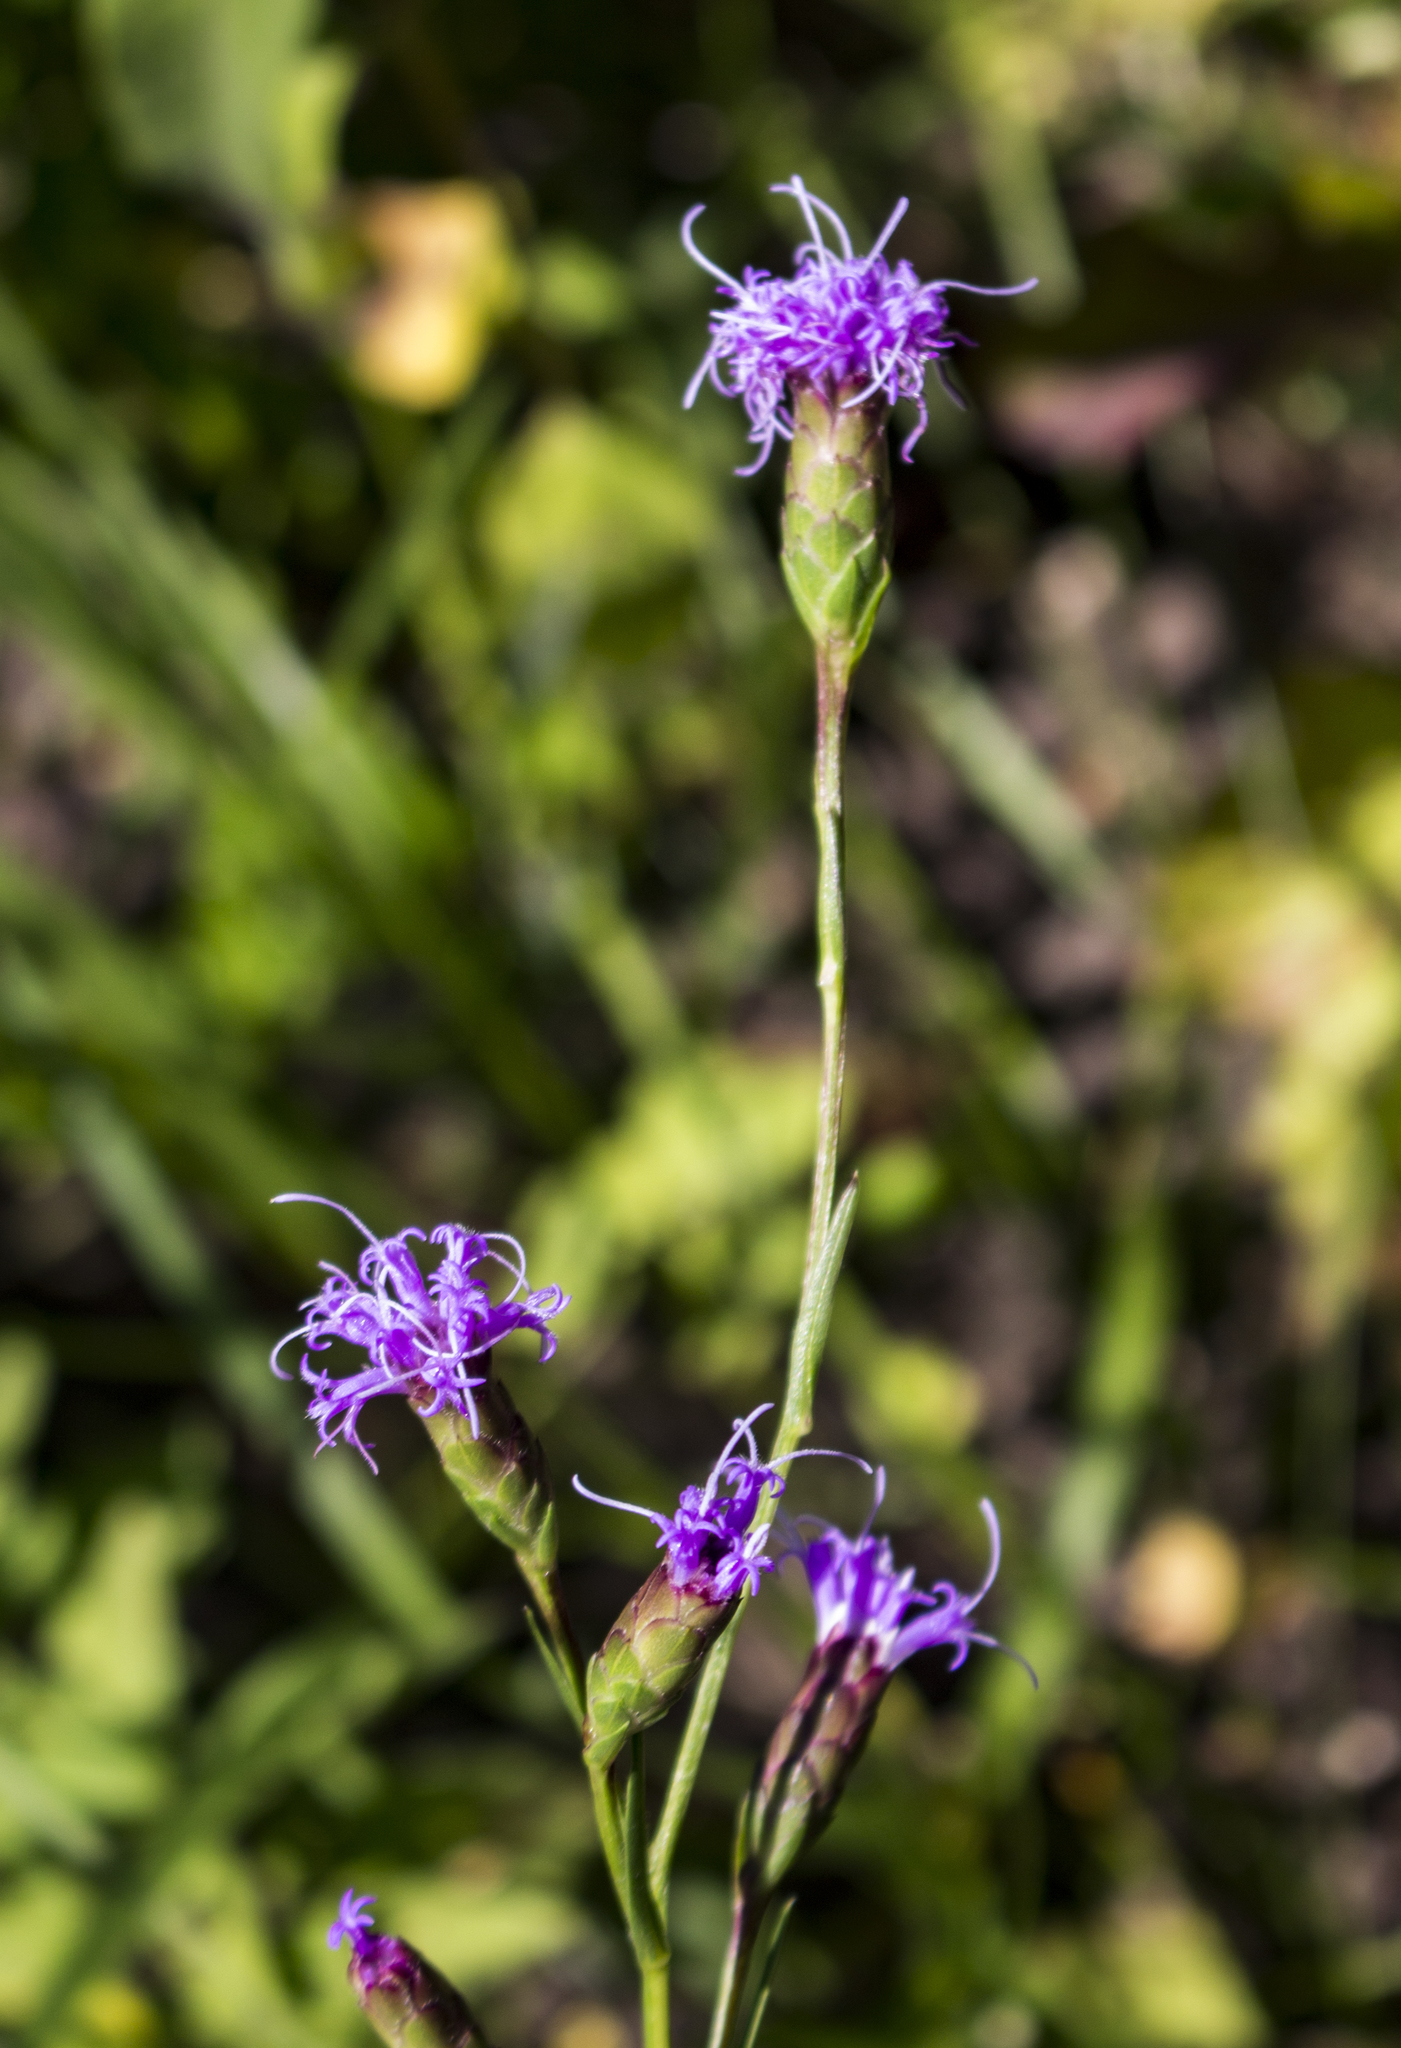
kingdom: Plantae
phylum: Tracheophyta
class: Magnoliopsida
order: Asterales
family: Asteraceae
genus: Liatris
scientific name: Liatris cylindracea
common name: Few-head blazingstar
